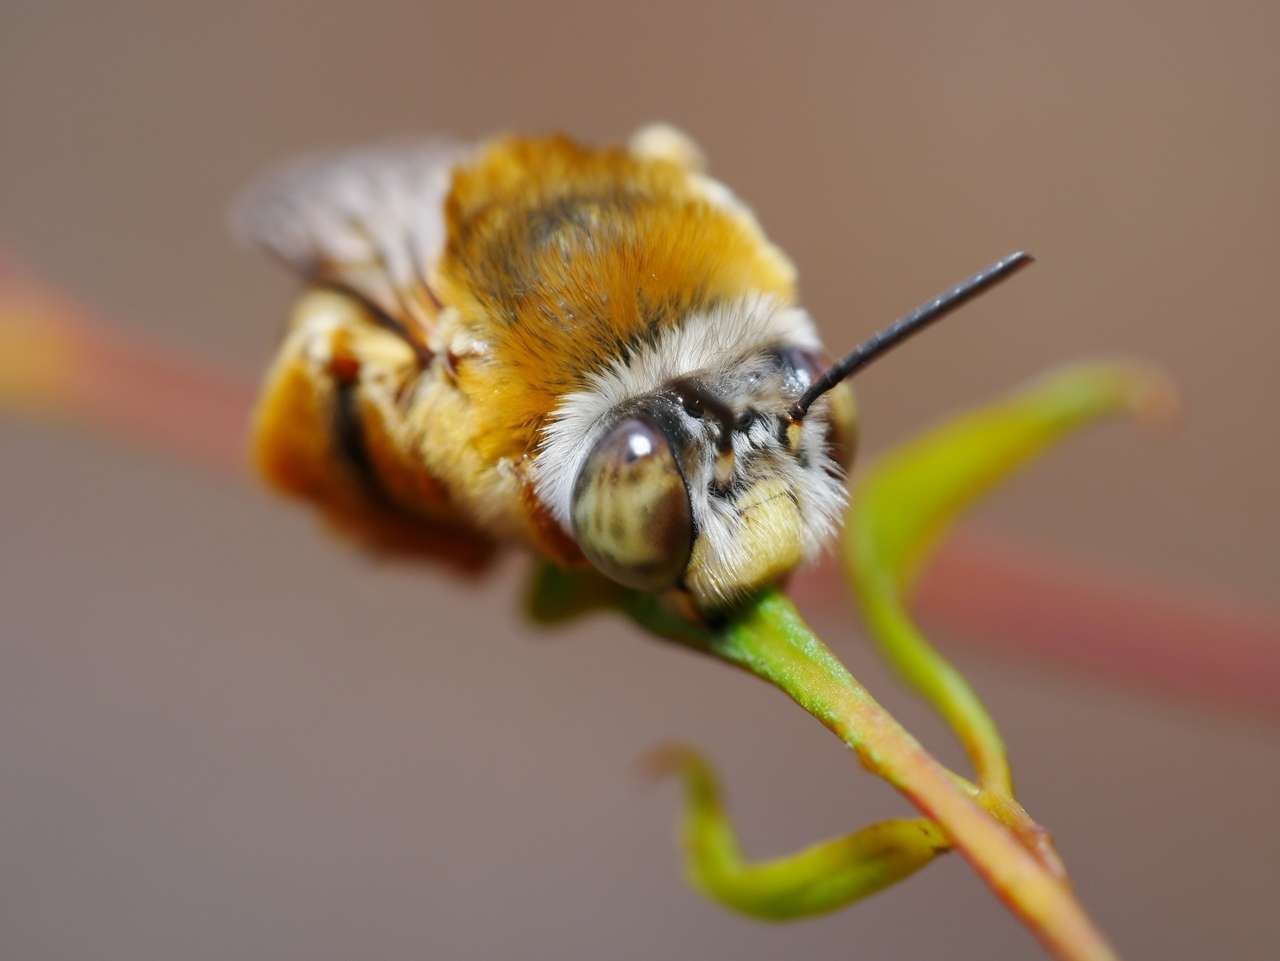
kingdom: Animalia
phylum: Arthropoda
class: Insecta
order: Hymenoptera
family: Apidae
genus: Amegilla
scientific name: Amegilla albiceps
